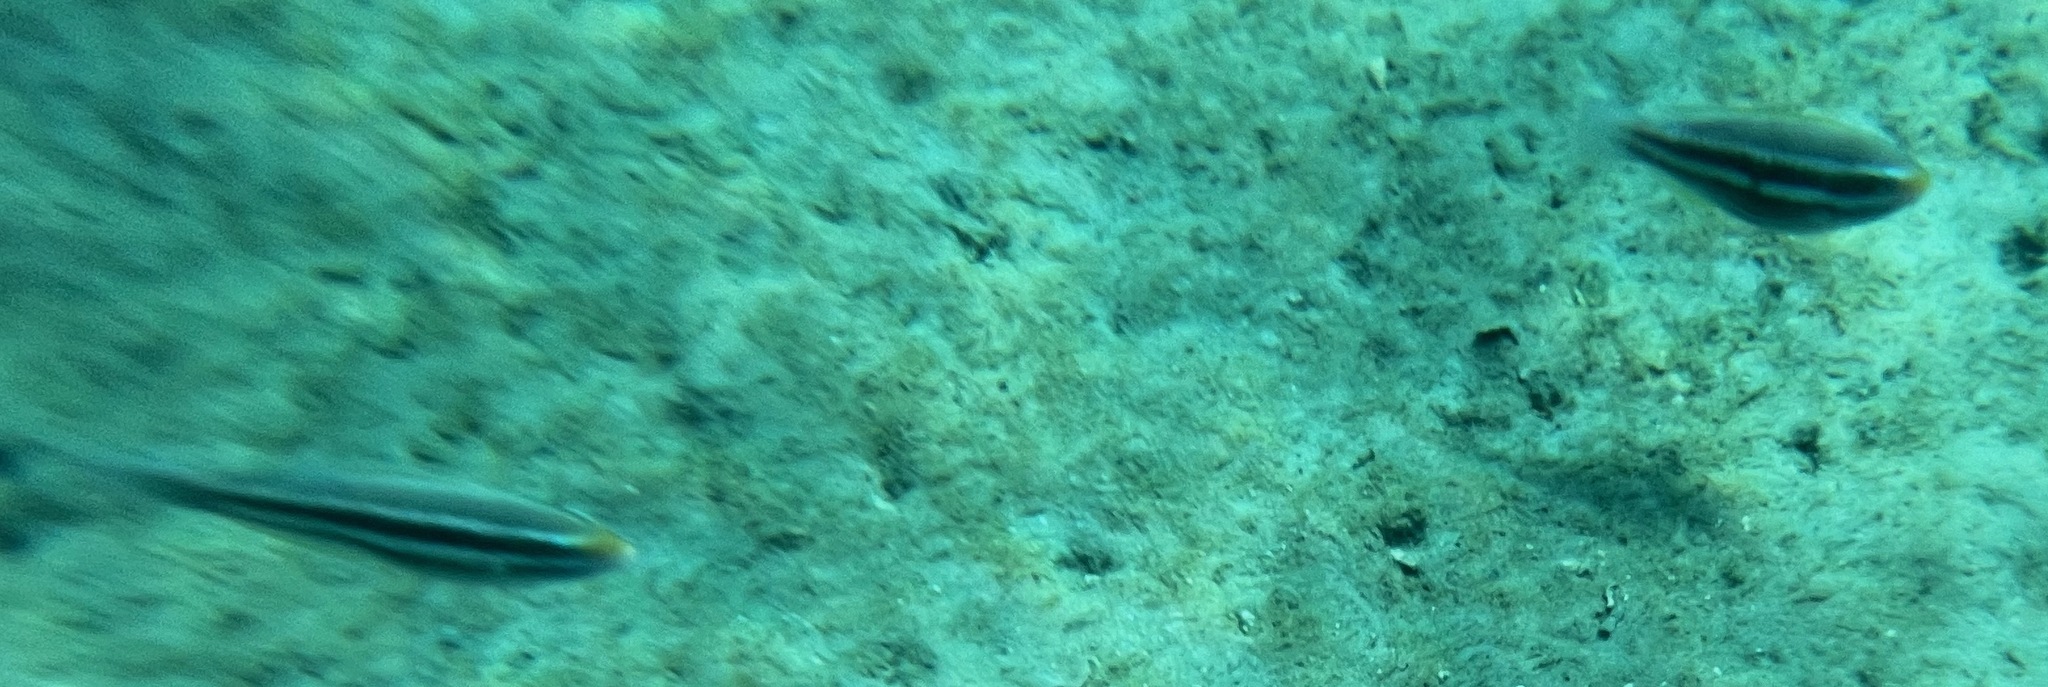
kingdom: Animalia
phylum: Chordata
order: Perciformes
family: Scaridae
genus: Scarus
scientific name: Scarus iseri
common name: Striped parrotfish
